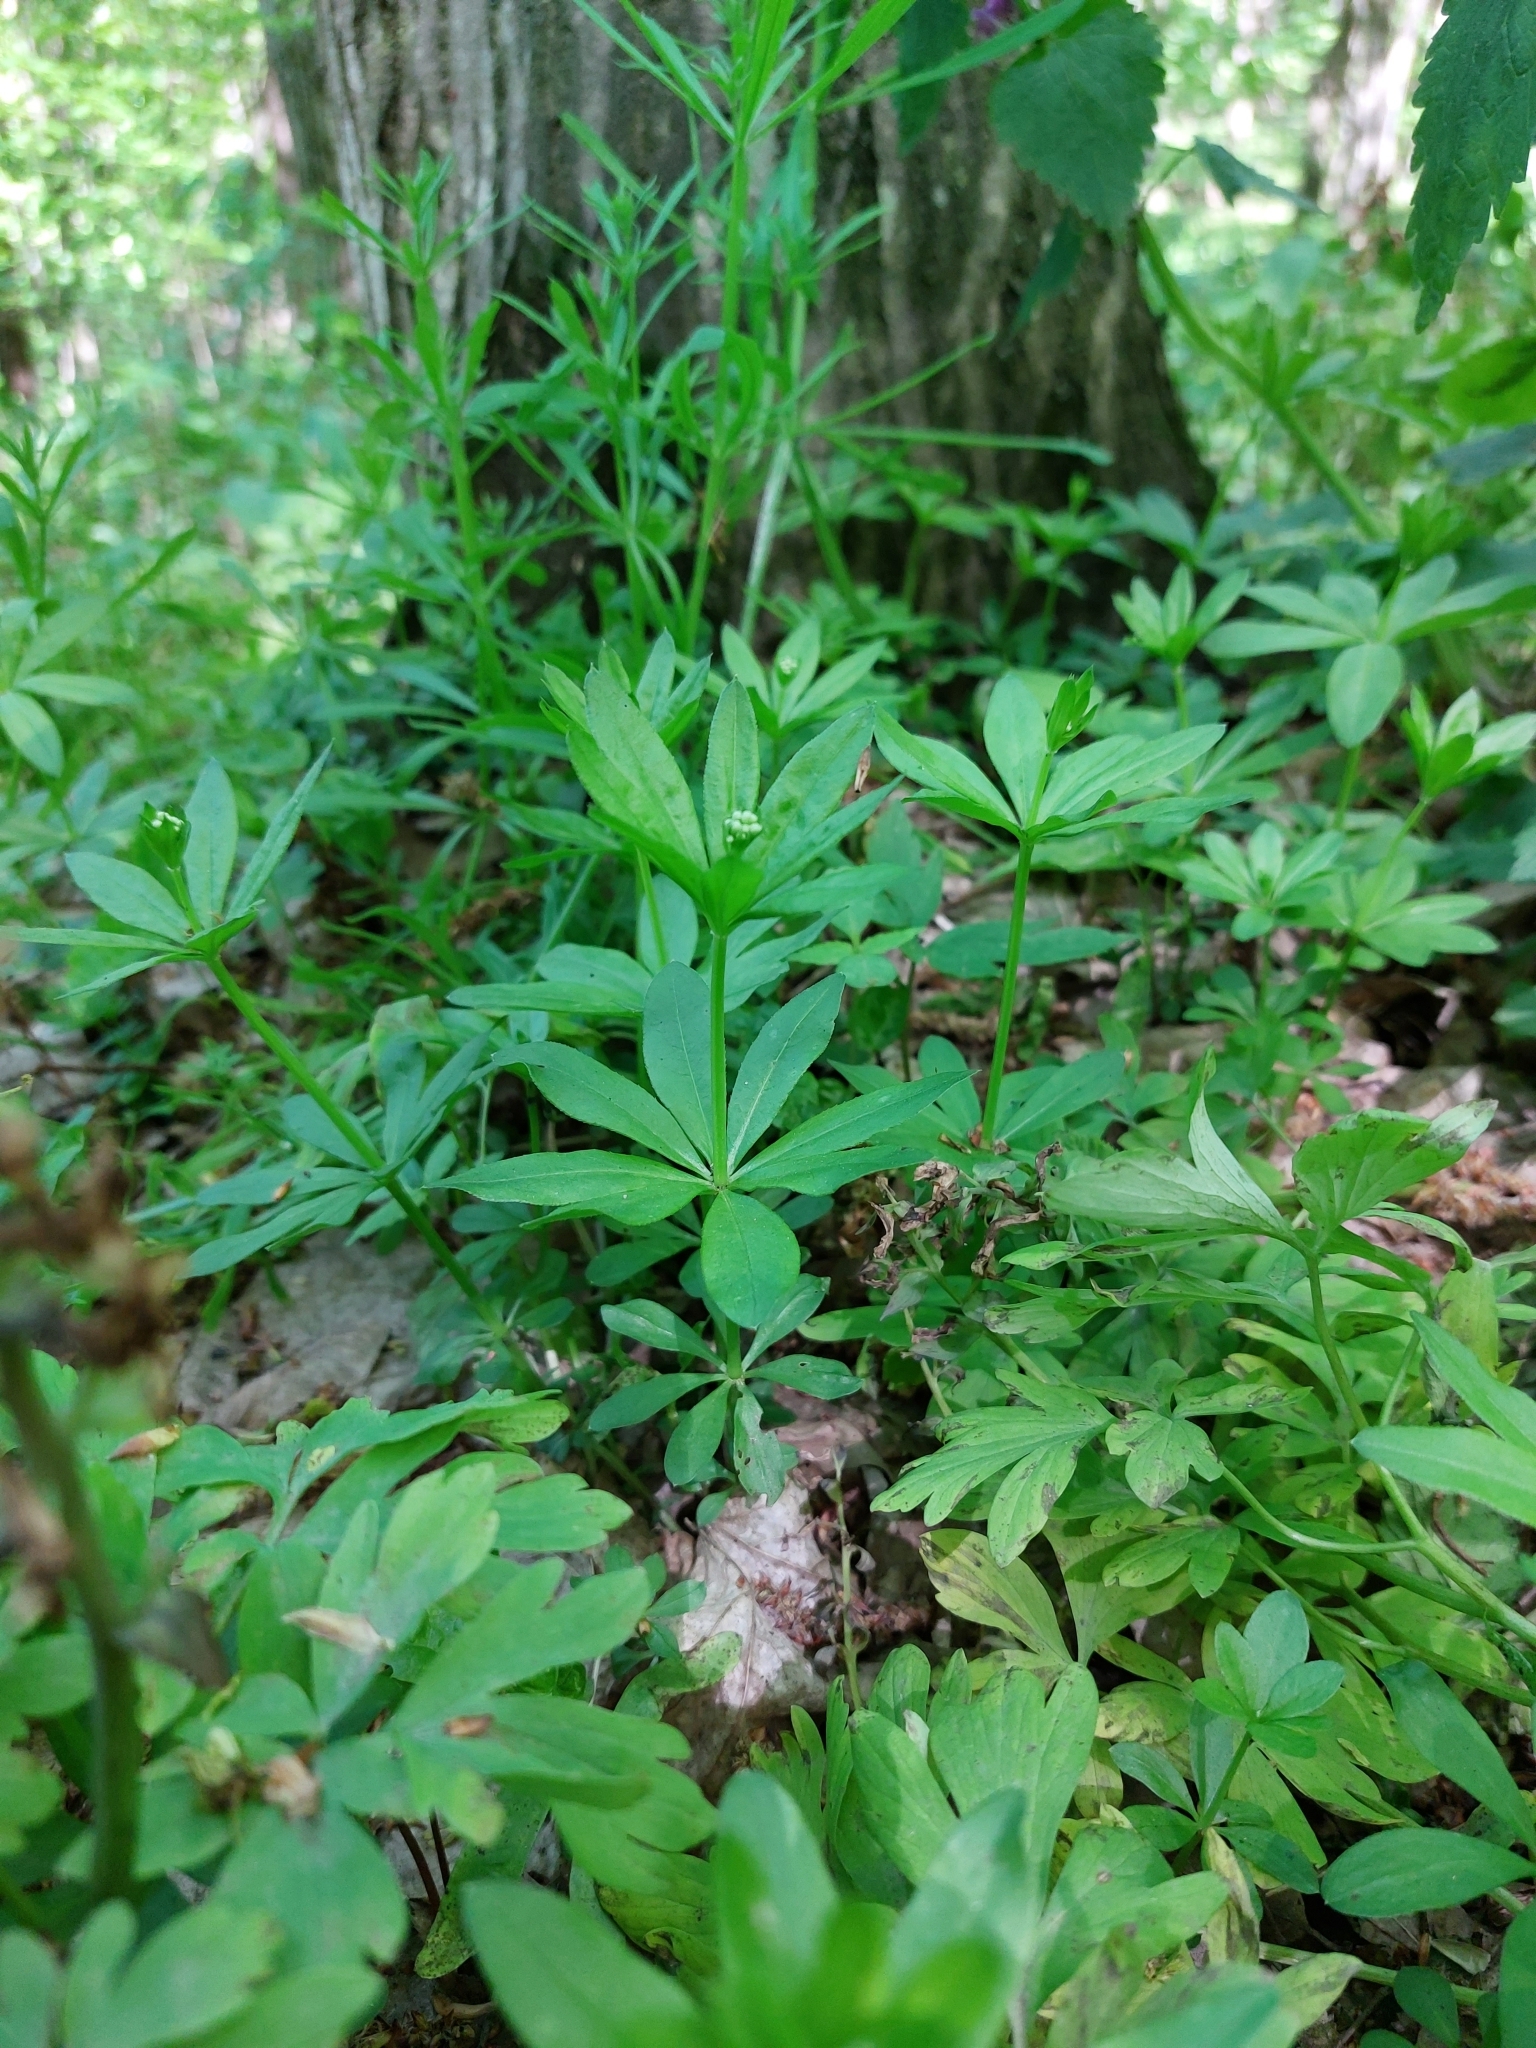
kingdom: Plantae
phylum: Tracheophyta
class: Magnoliopsida
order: Gentianales
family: Rubiaceae
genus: Galium
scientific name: Galium odoratum
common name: Sweet woodruff
